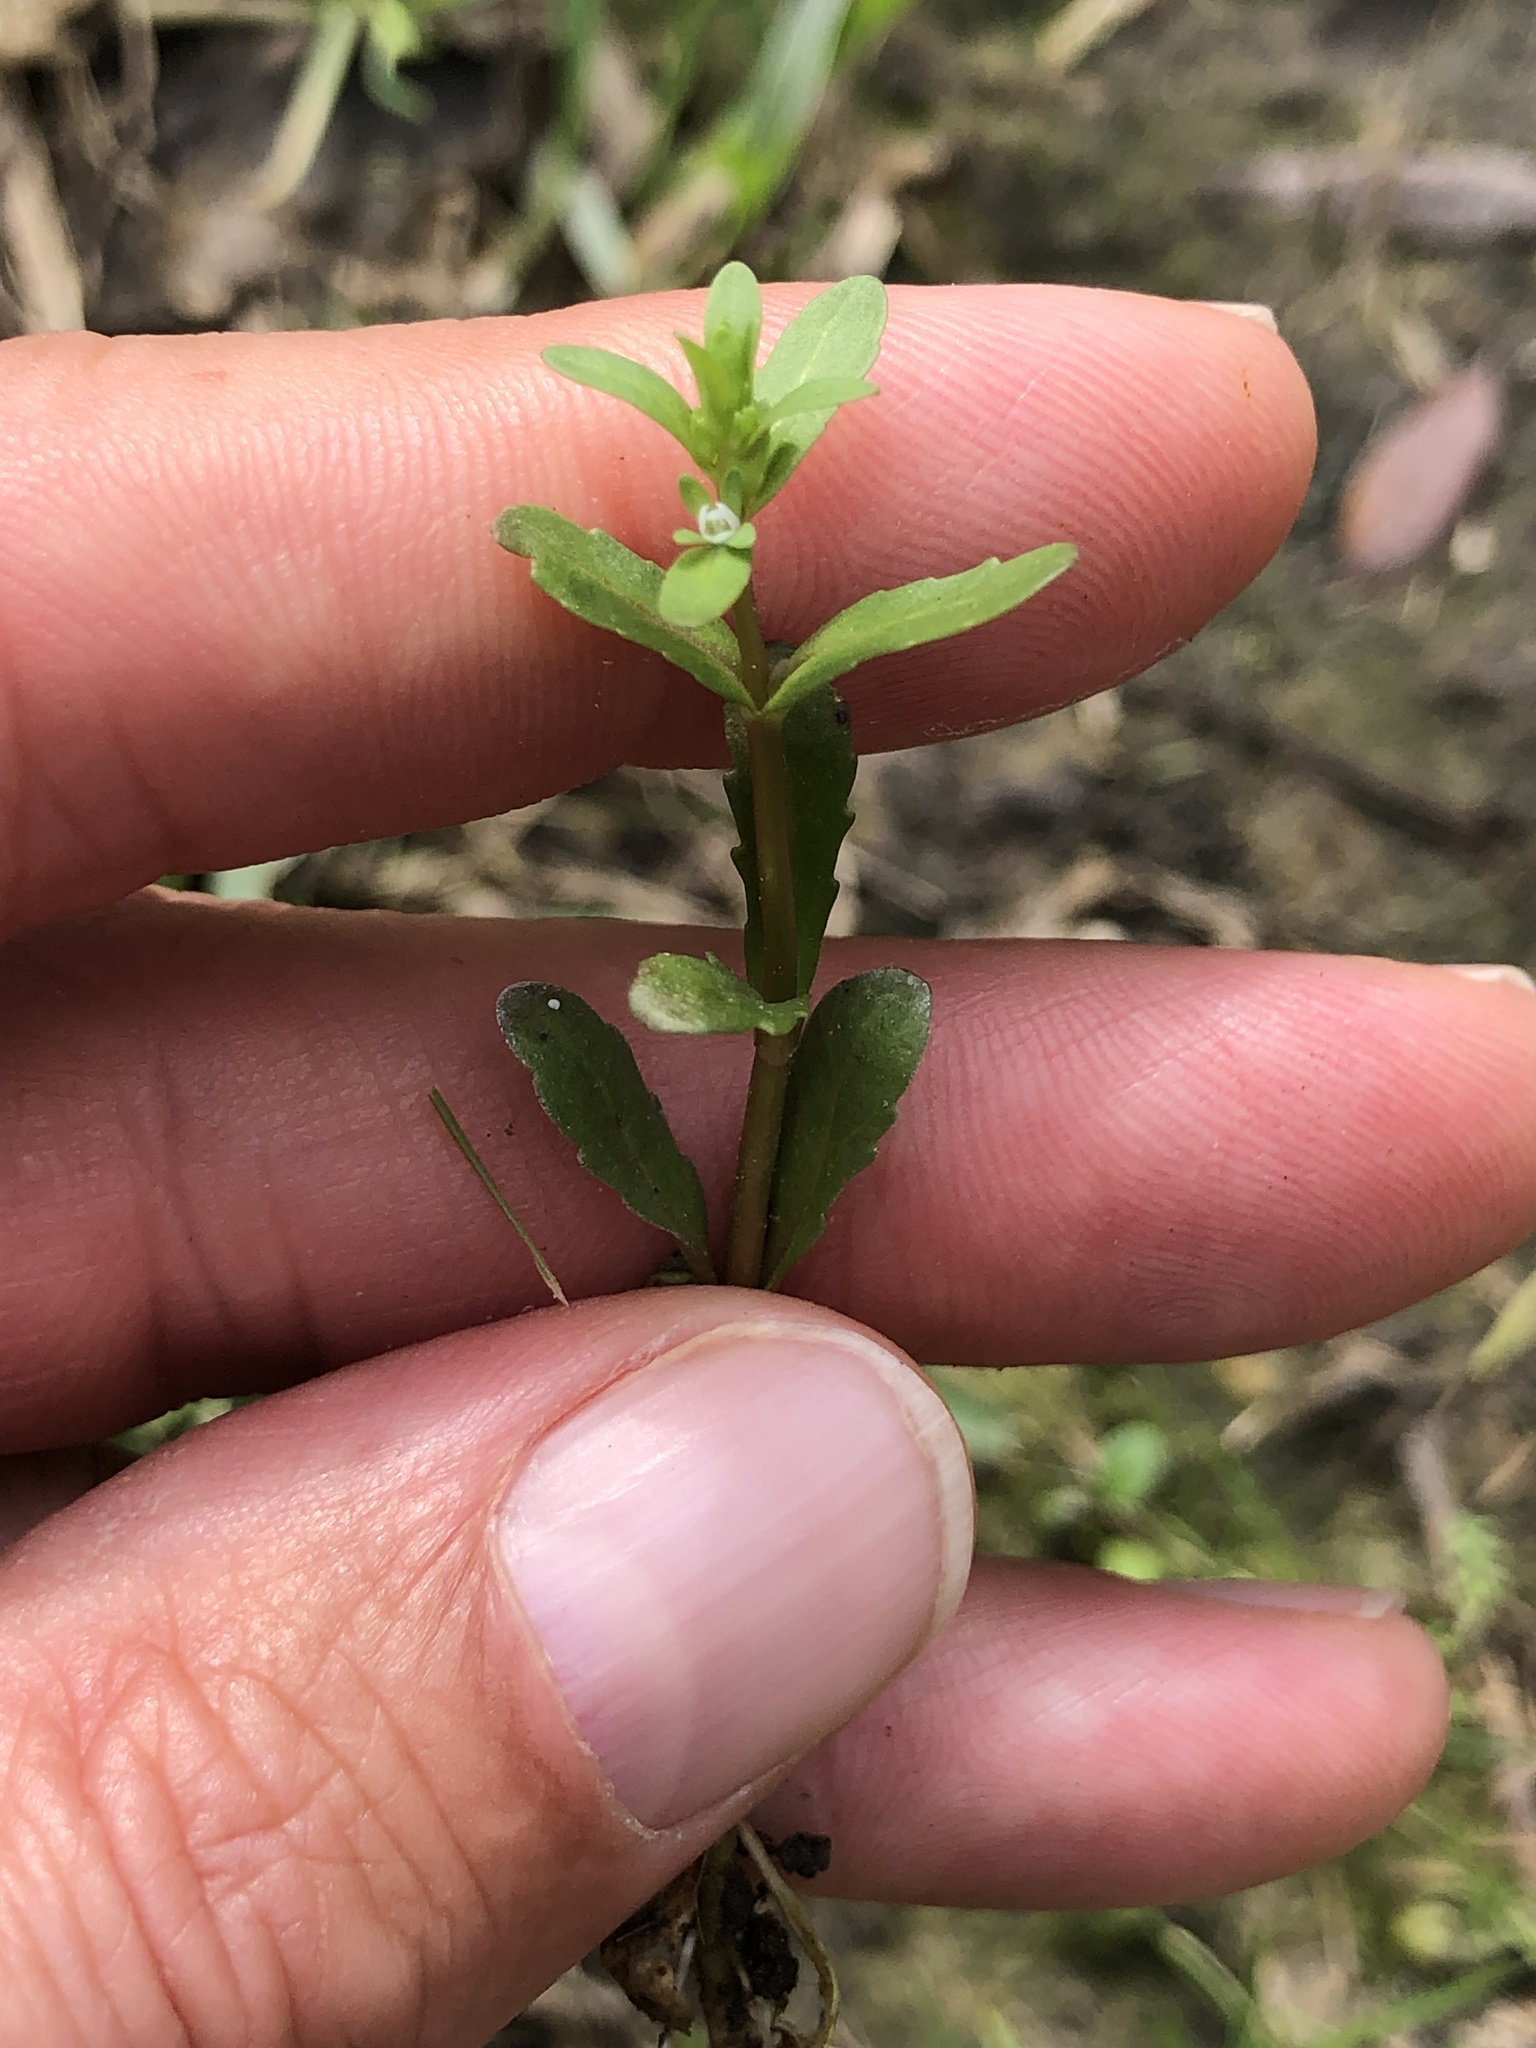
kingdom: Plantae
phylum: Tracheophyta
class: Magnoliopsida
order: Lamiales
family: Plantaginaceae
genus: Veronica
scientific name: Veronica peregrina
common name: Neckweed
